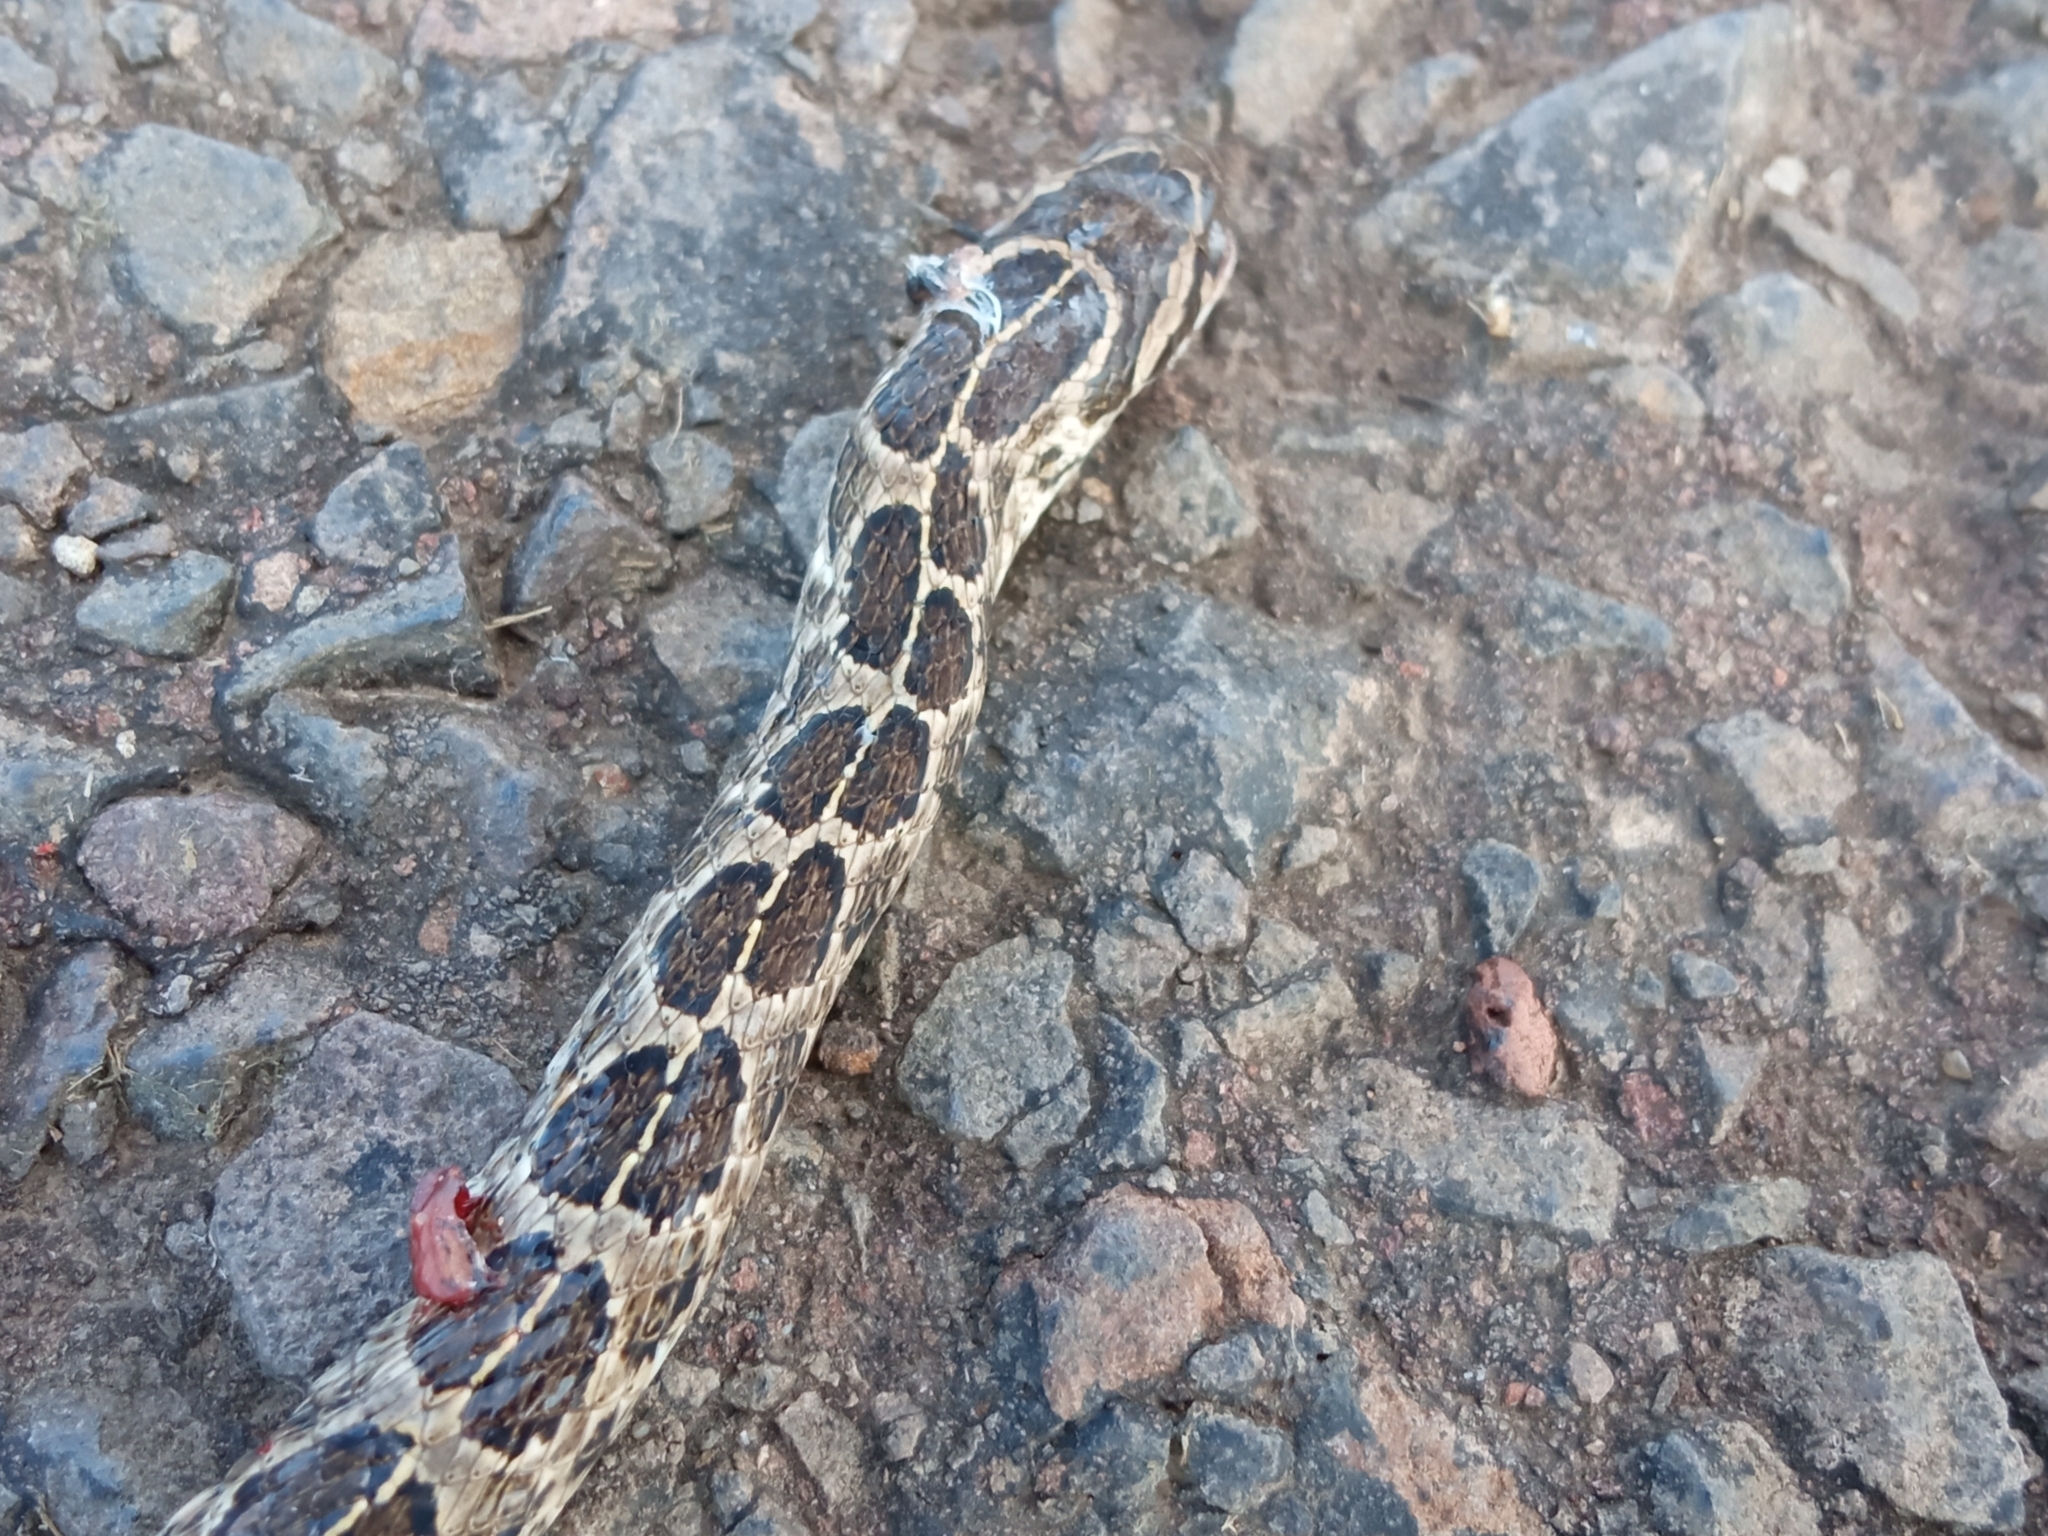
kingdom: Animalia
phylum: Chordata
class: Squamata
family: Colubridae
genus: Tachymenis
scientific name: Tachymenis
